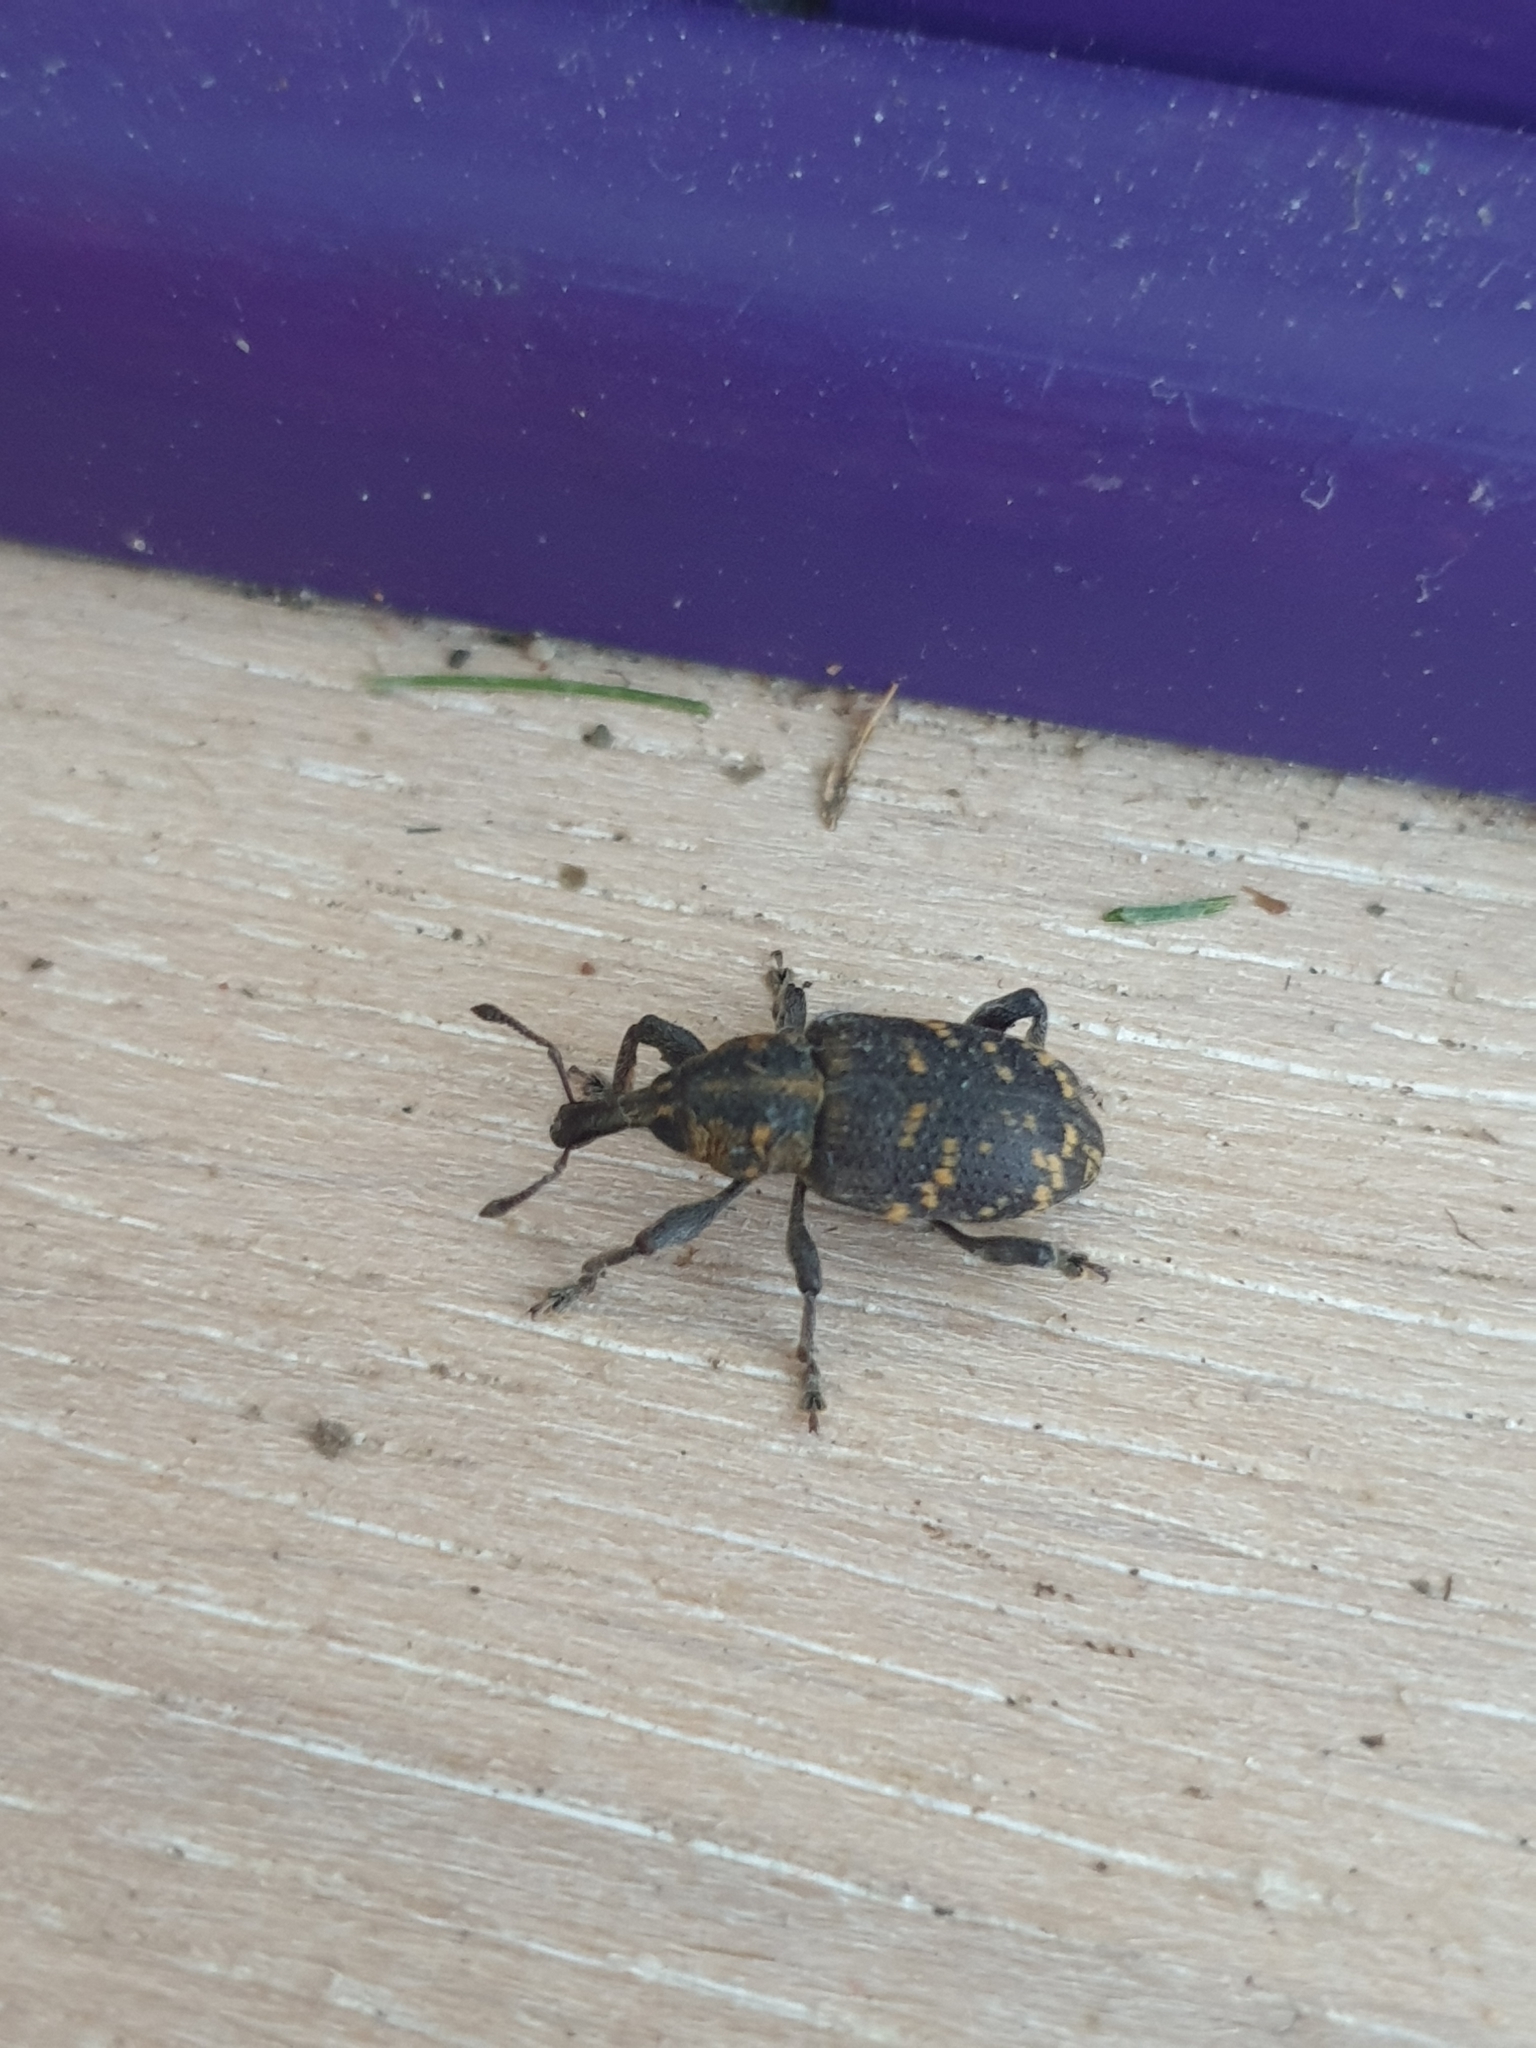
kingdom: Animalia
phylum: Arthropoda
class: Insecta
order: Coleoptera
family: Curculionidae
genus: Hylobius
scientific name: Hylobius abietis
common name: Large pine weevil
